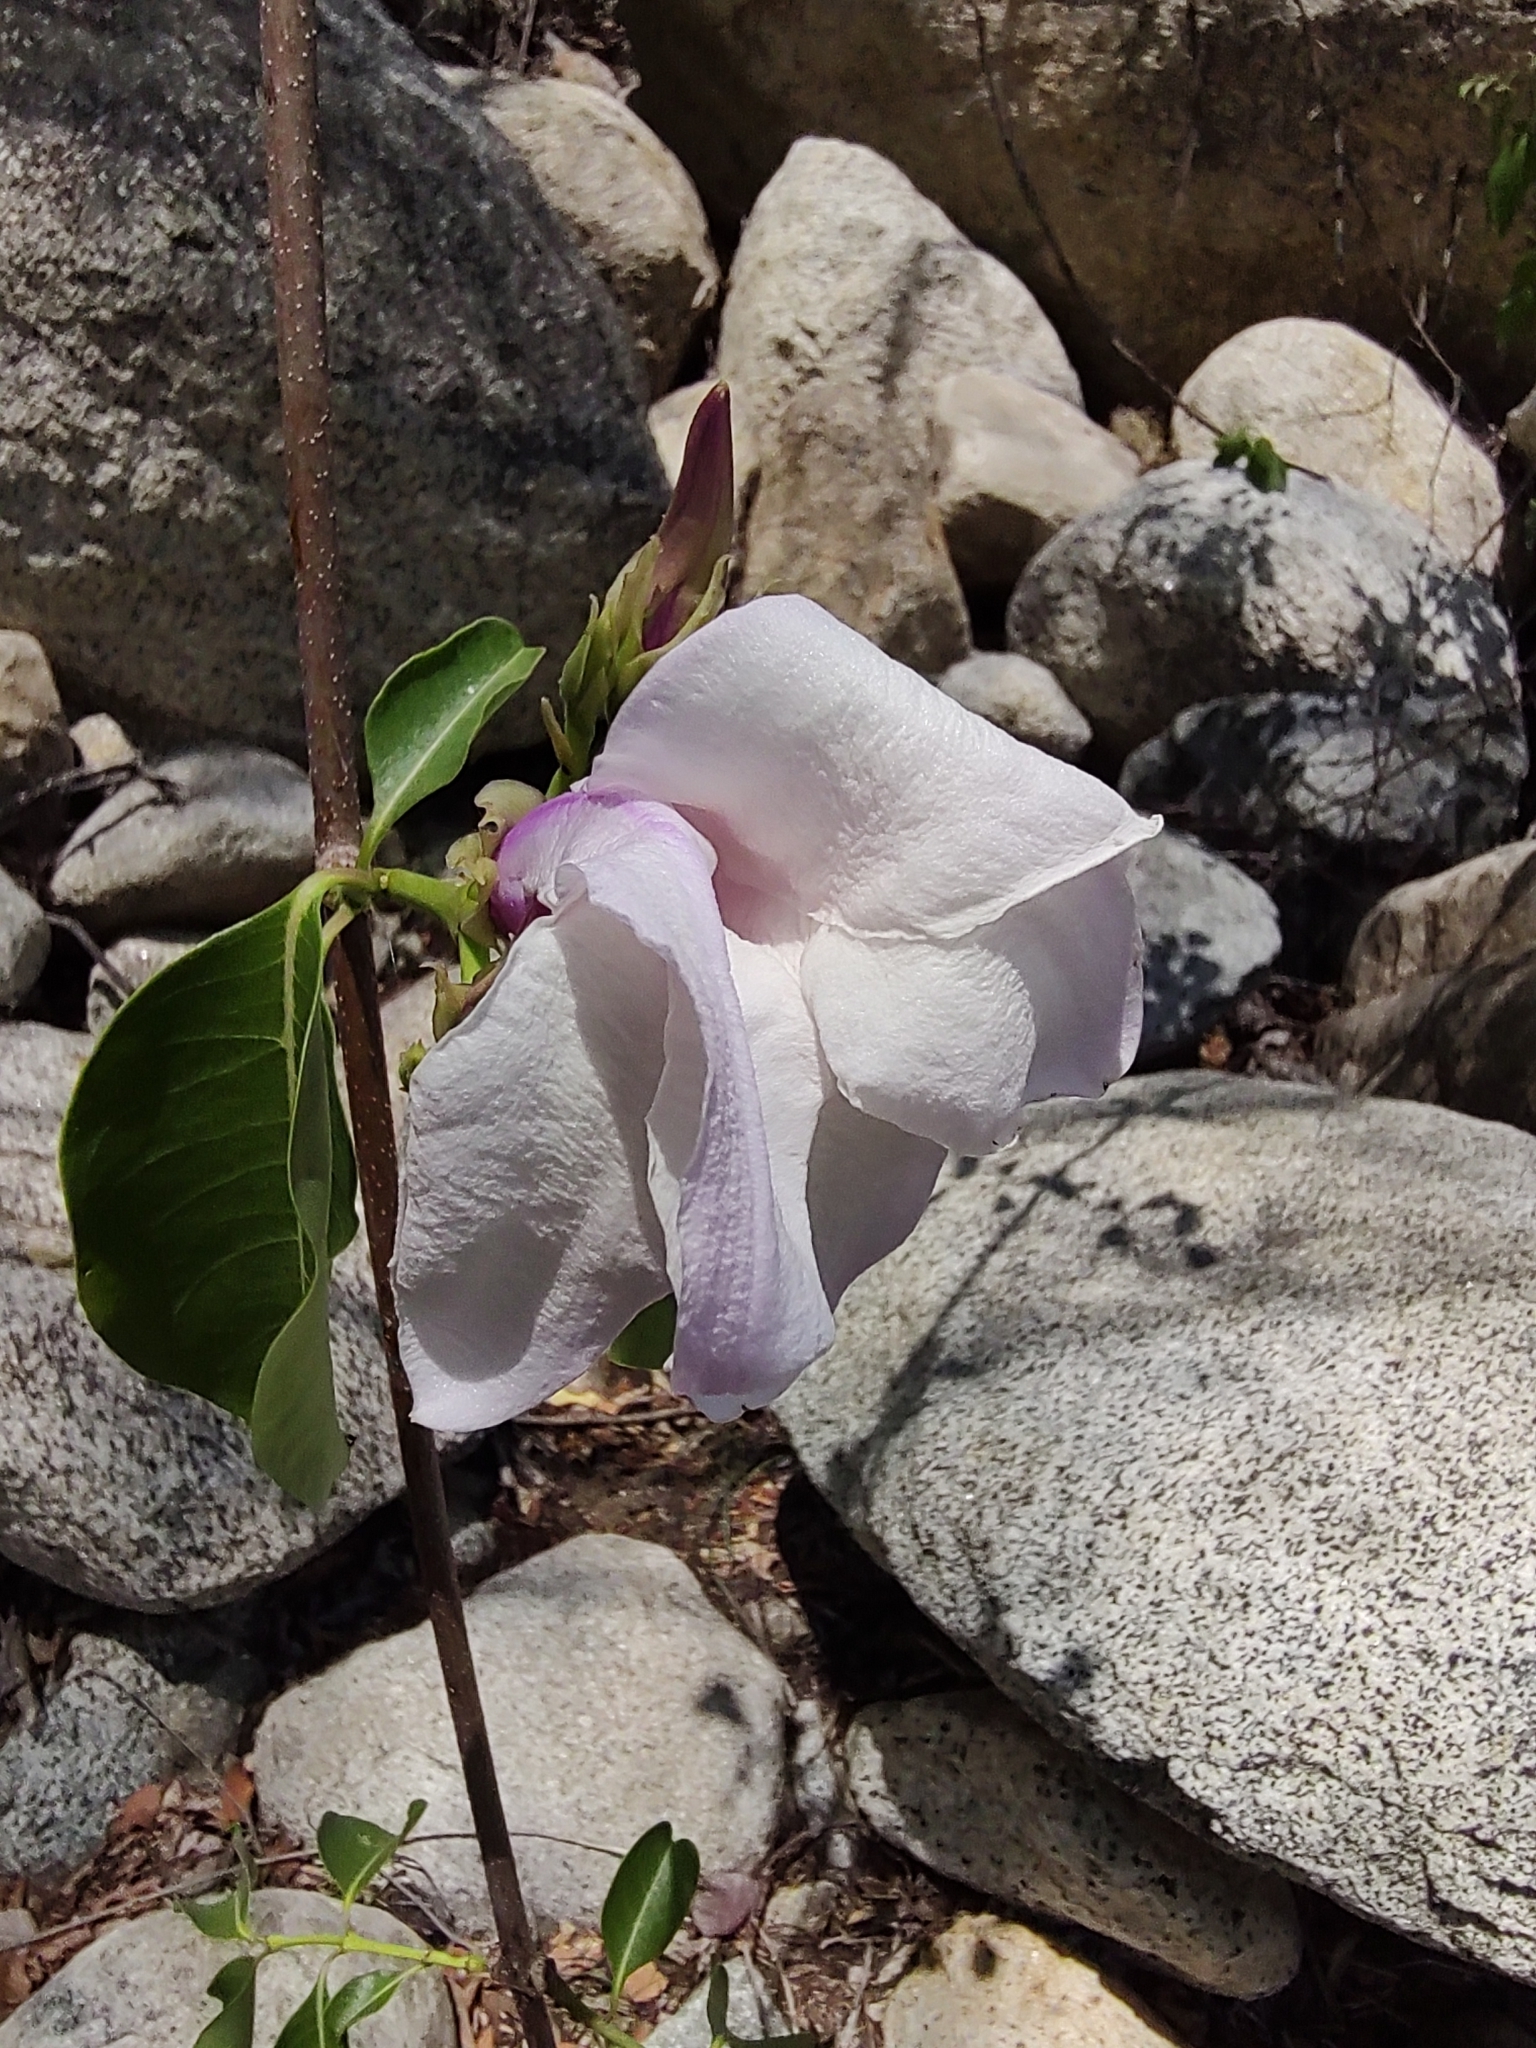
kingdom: Plantae
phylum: Tracheophyta
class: Magnoliopsida
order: Gentianales
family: Apocynaceae
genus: Cryptostegia
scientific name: Cryptostegia grandiflora
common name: Palay rubbervine
